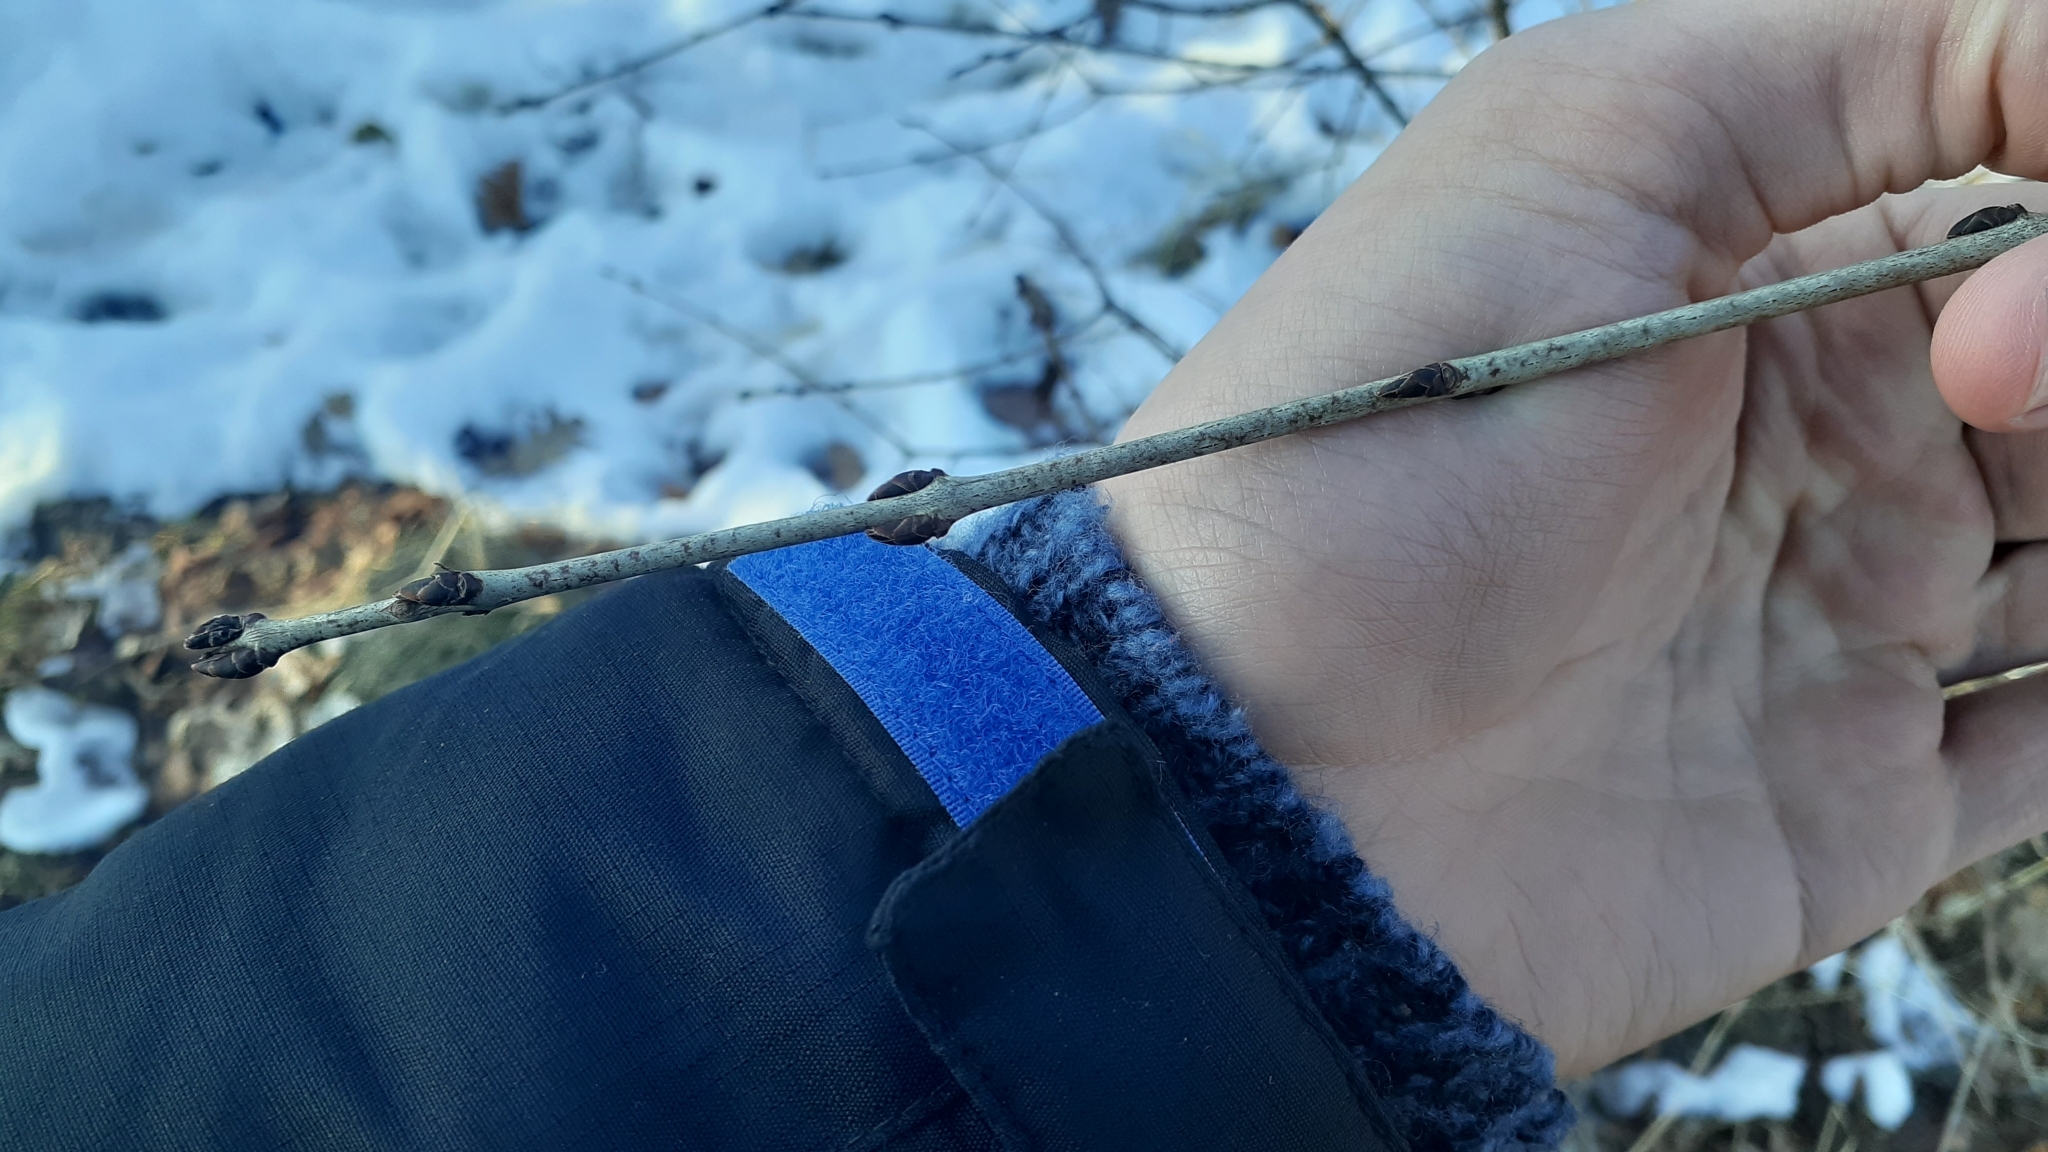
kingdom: Plantae
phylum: Tracheophyta
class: Magnoliopsida
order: Rosales
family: Rhamnaceae
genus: Rhamnus
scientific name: Rhamnus cathartica
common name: Common buckthorn
